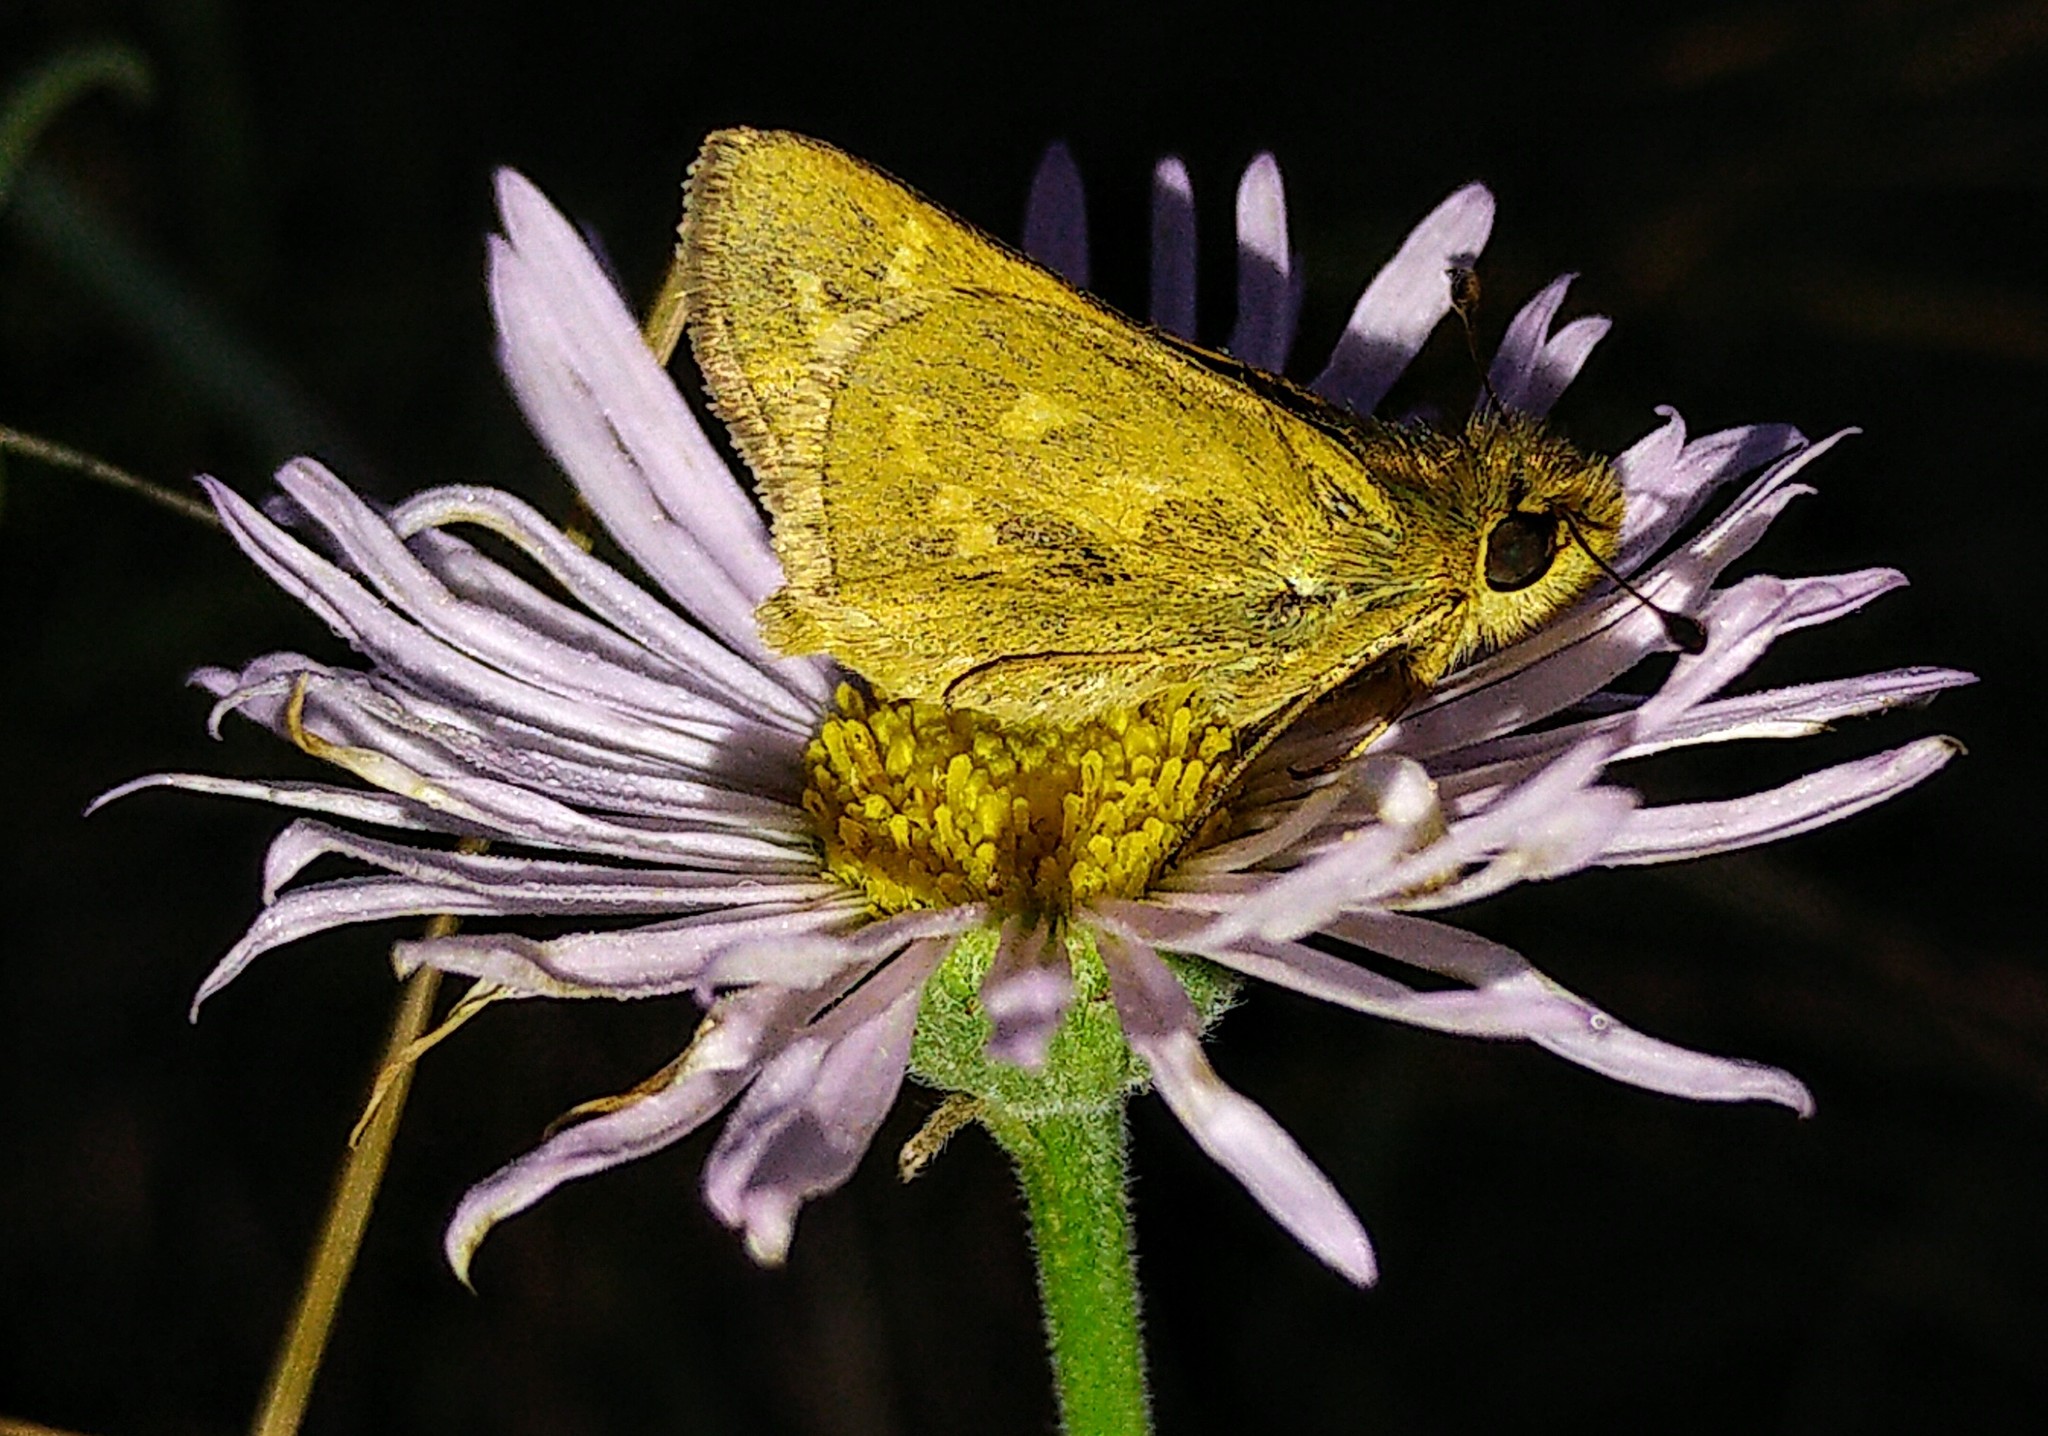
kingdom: Animalia
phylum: Arthropoda
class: Insecta
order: Lepidoptera
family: Hesperiidae
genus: Hesperia
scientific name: Hesperia comma
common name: Common branded skipper
